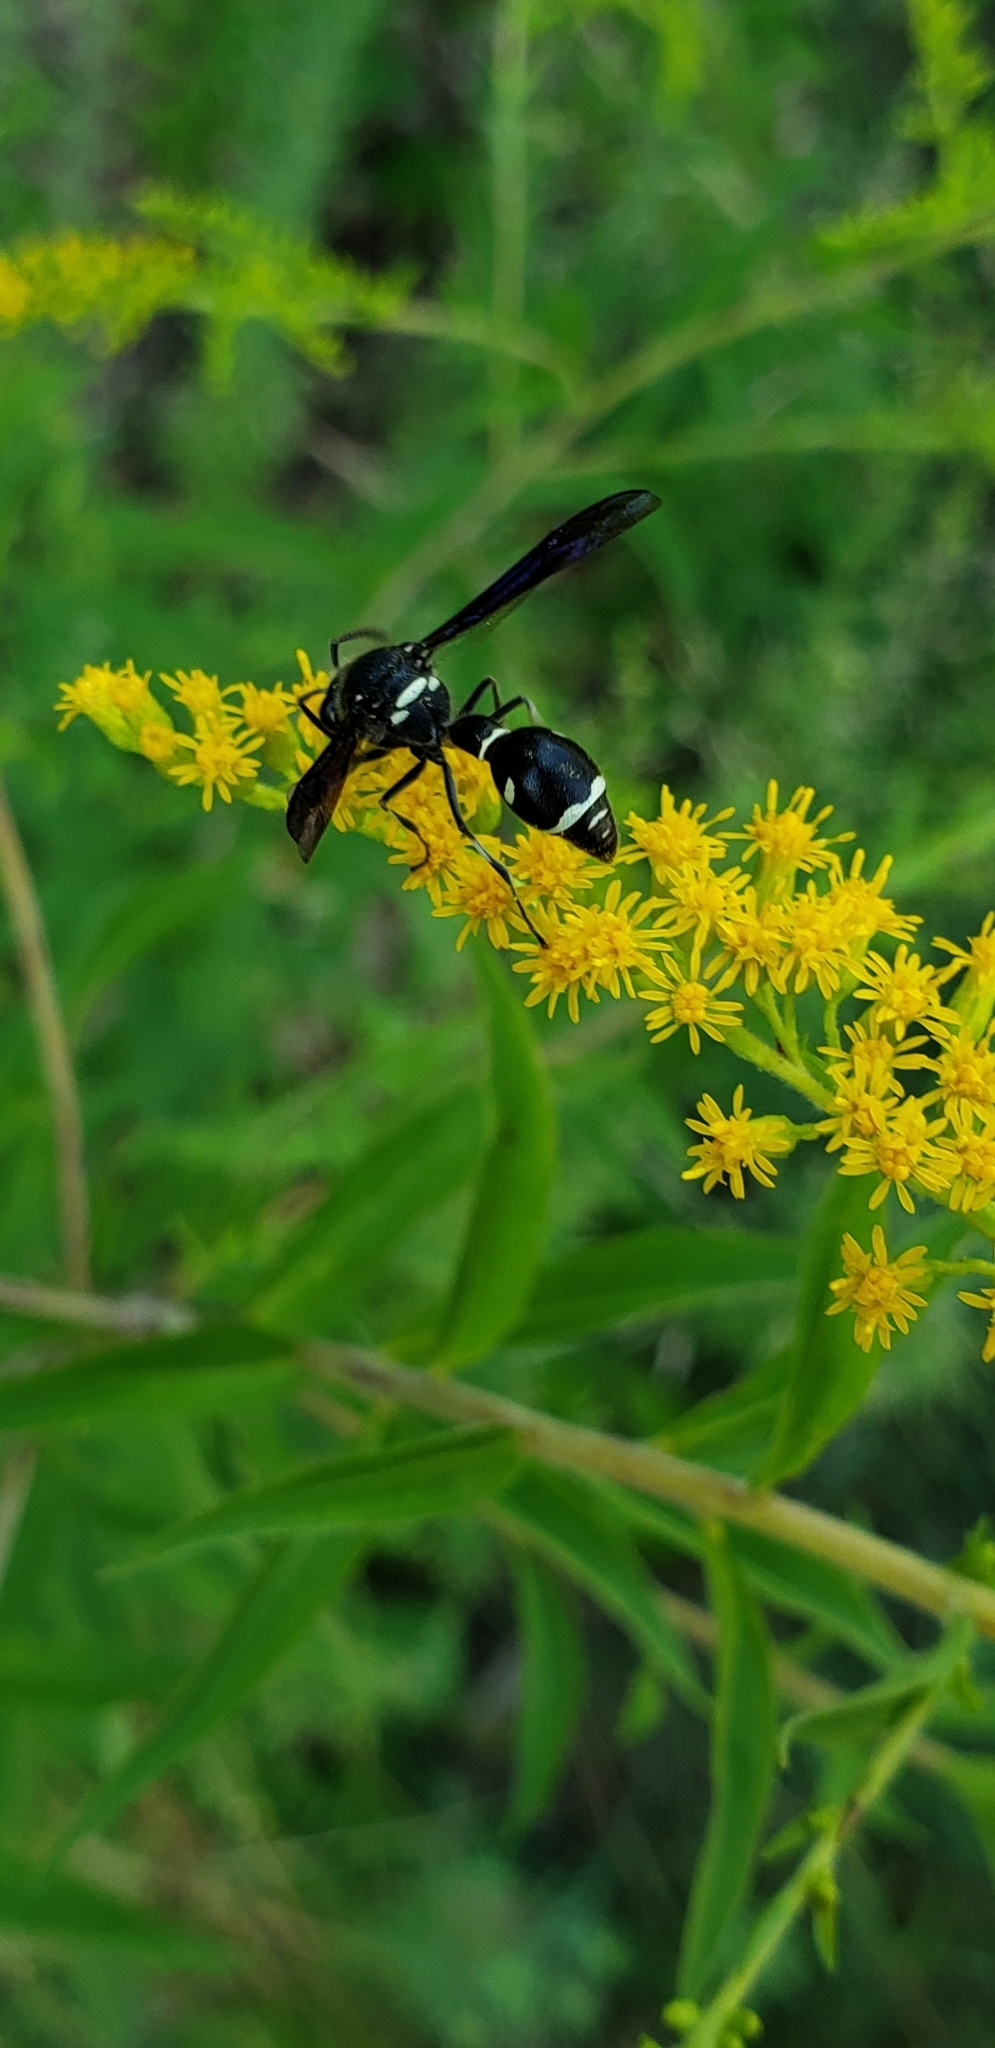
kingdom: Animalia
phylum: Arthropoda
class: Insecta
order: Hymenoptera
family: Vespidae
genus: Eumenes
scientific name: Eumenes fraternus
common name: Fraternal potter wasp
